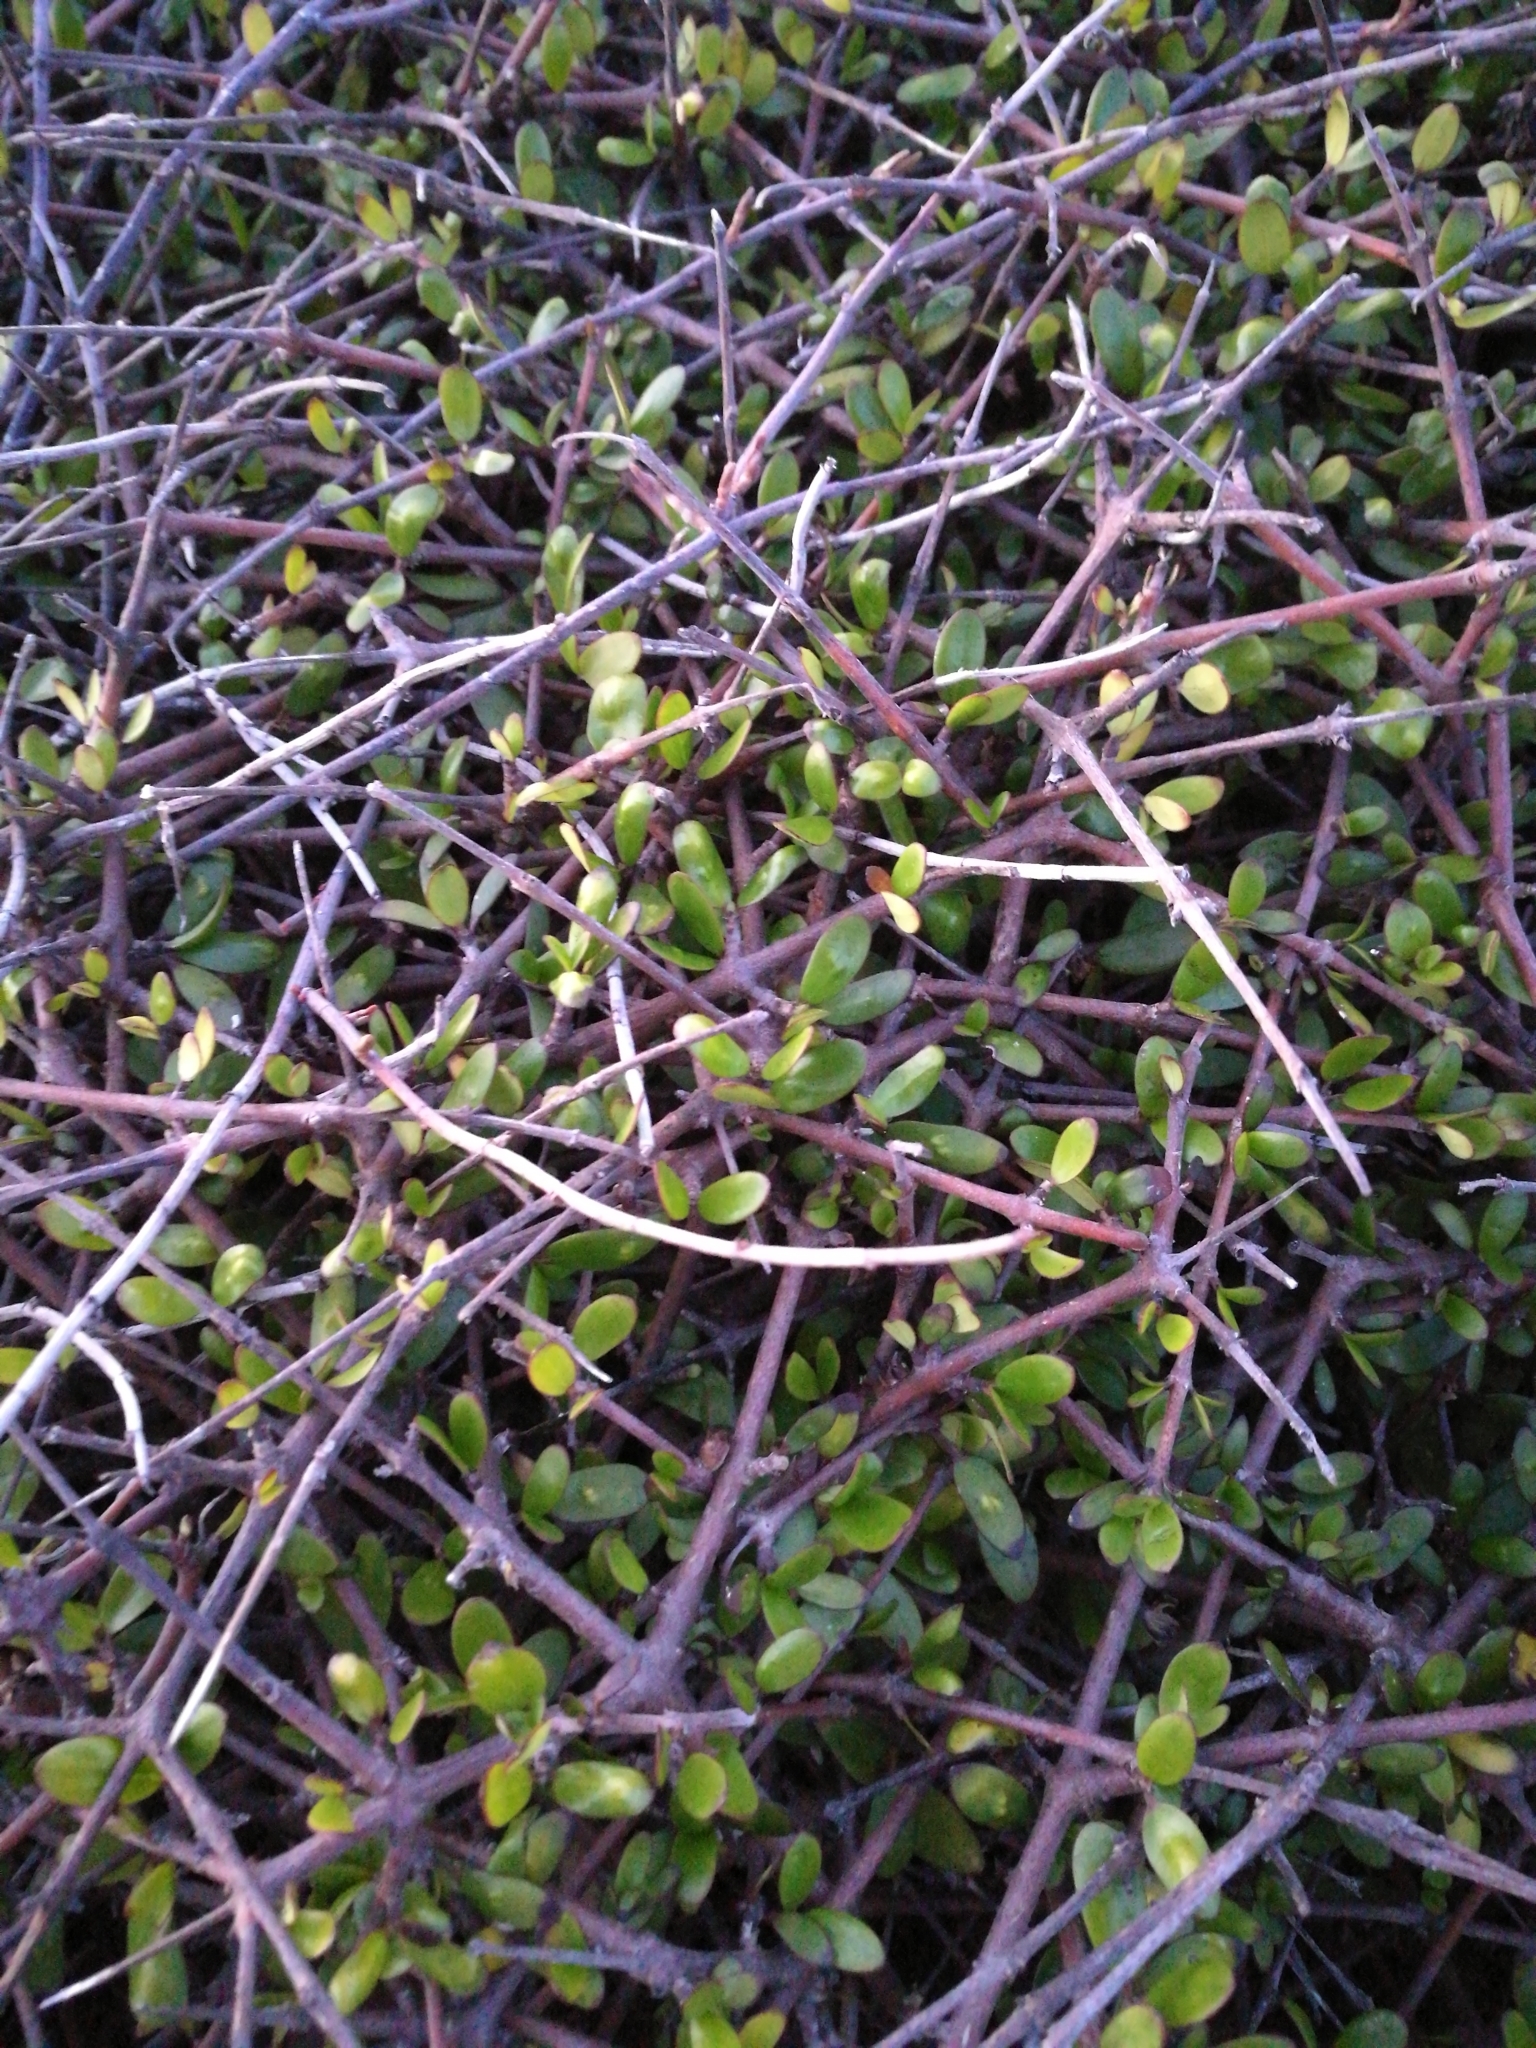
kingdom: Plantae
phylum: Tracheophyta
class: Magnoliopsida
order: Gentianales
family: Rubiaceae
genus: Coprosma
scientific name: Coprosma propinqua
